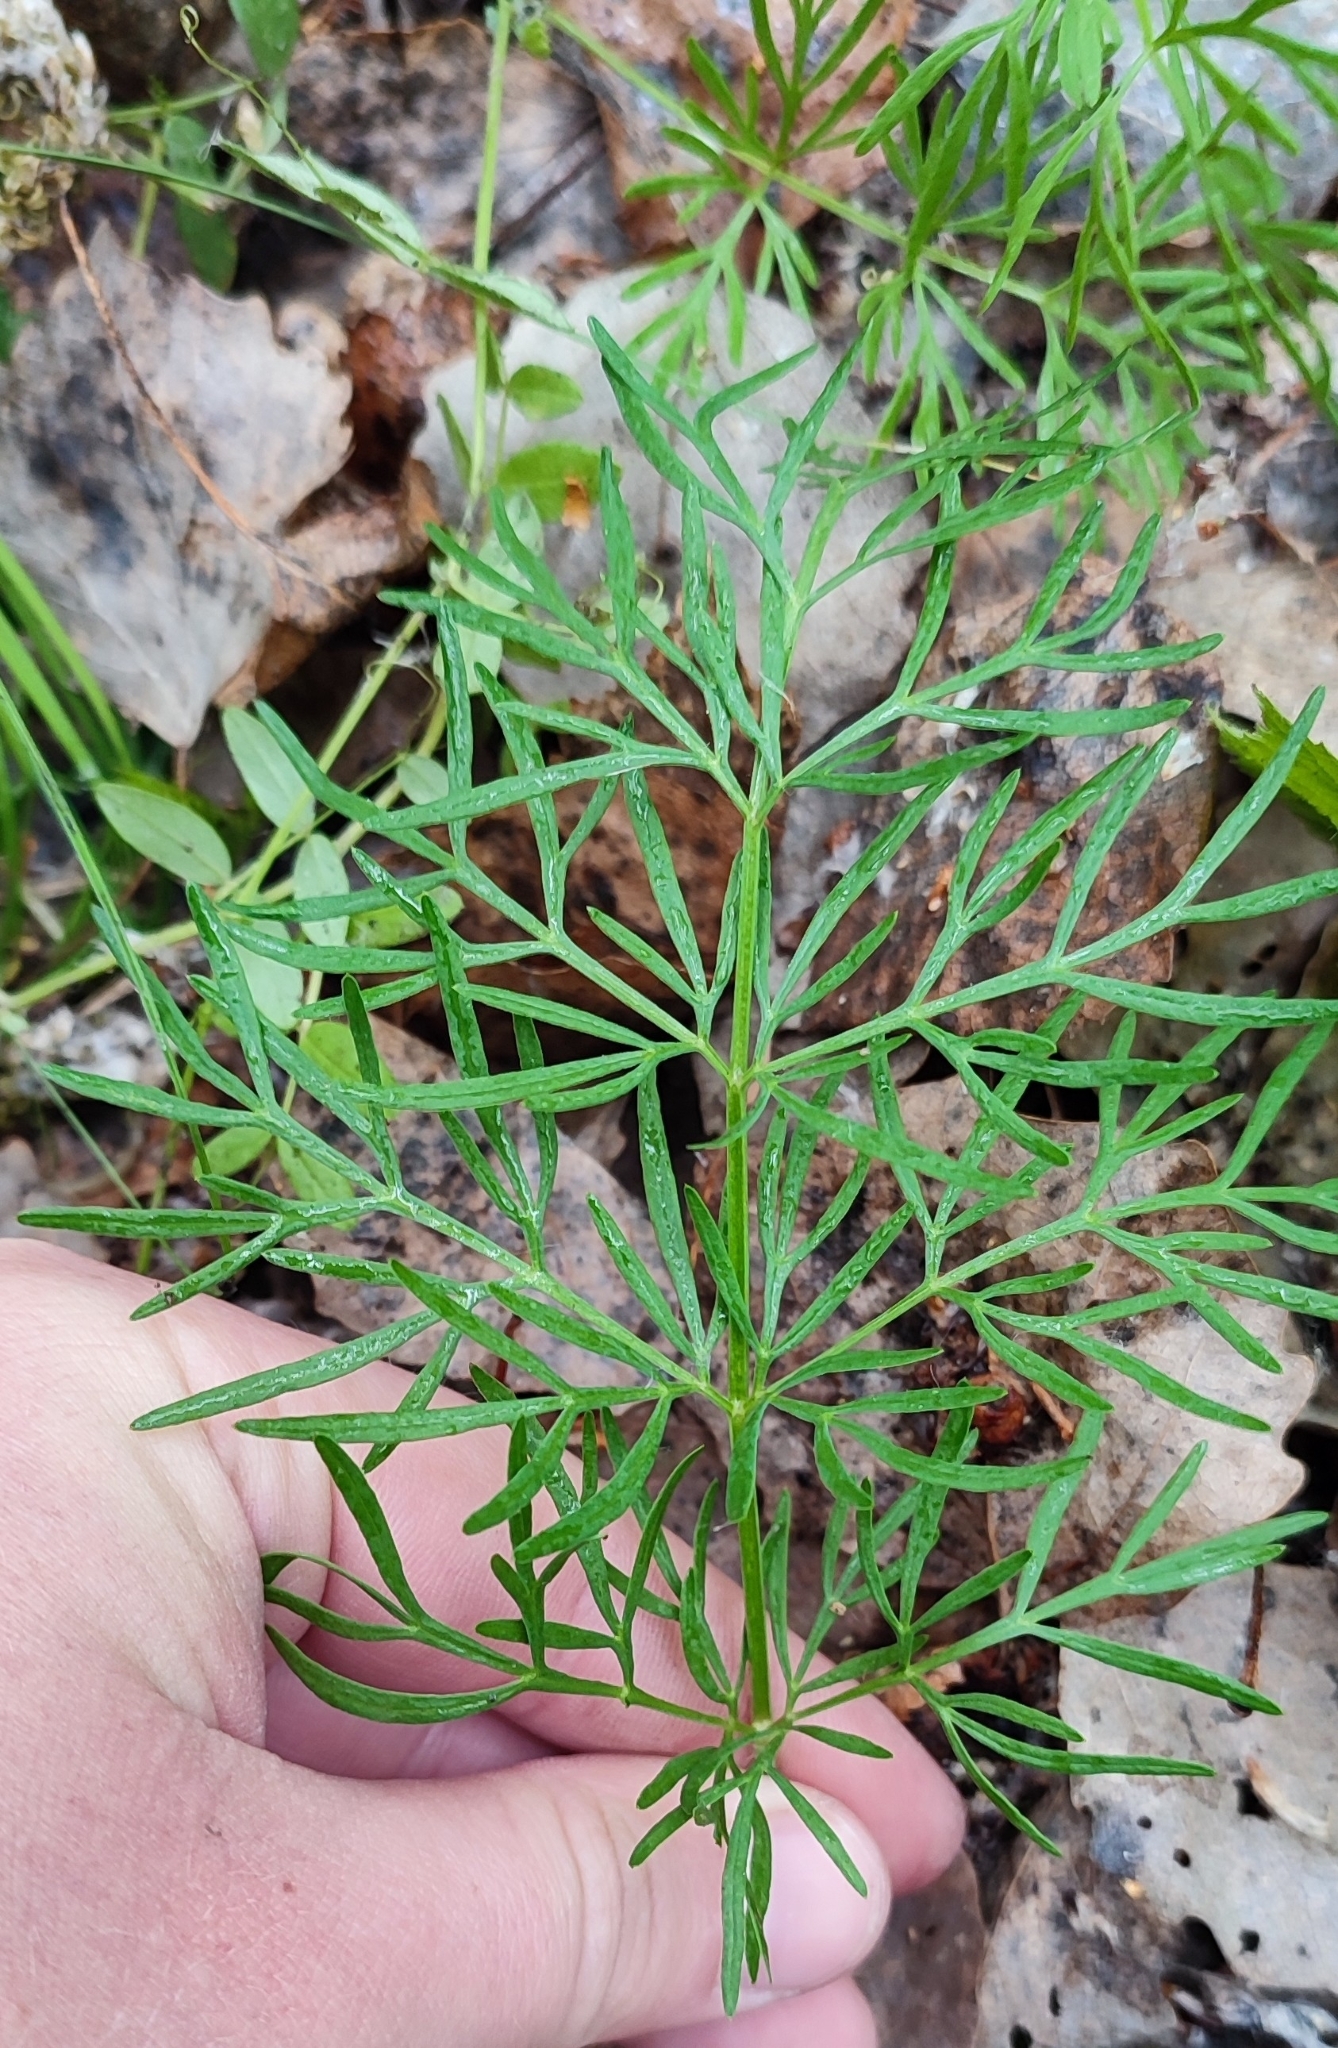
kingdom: Plantae
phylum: Tracheophyta
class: Magnoliopsida
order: Apiales
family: Apiaceae
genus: Kadenia
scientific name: Kadenia dubia
